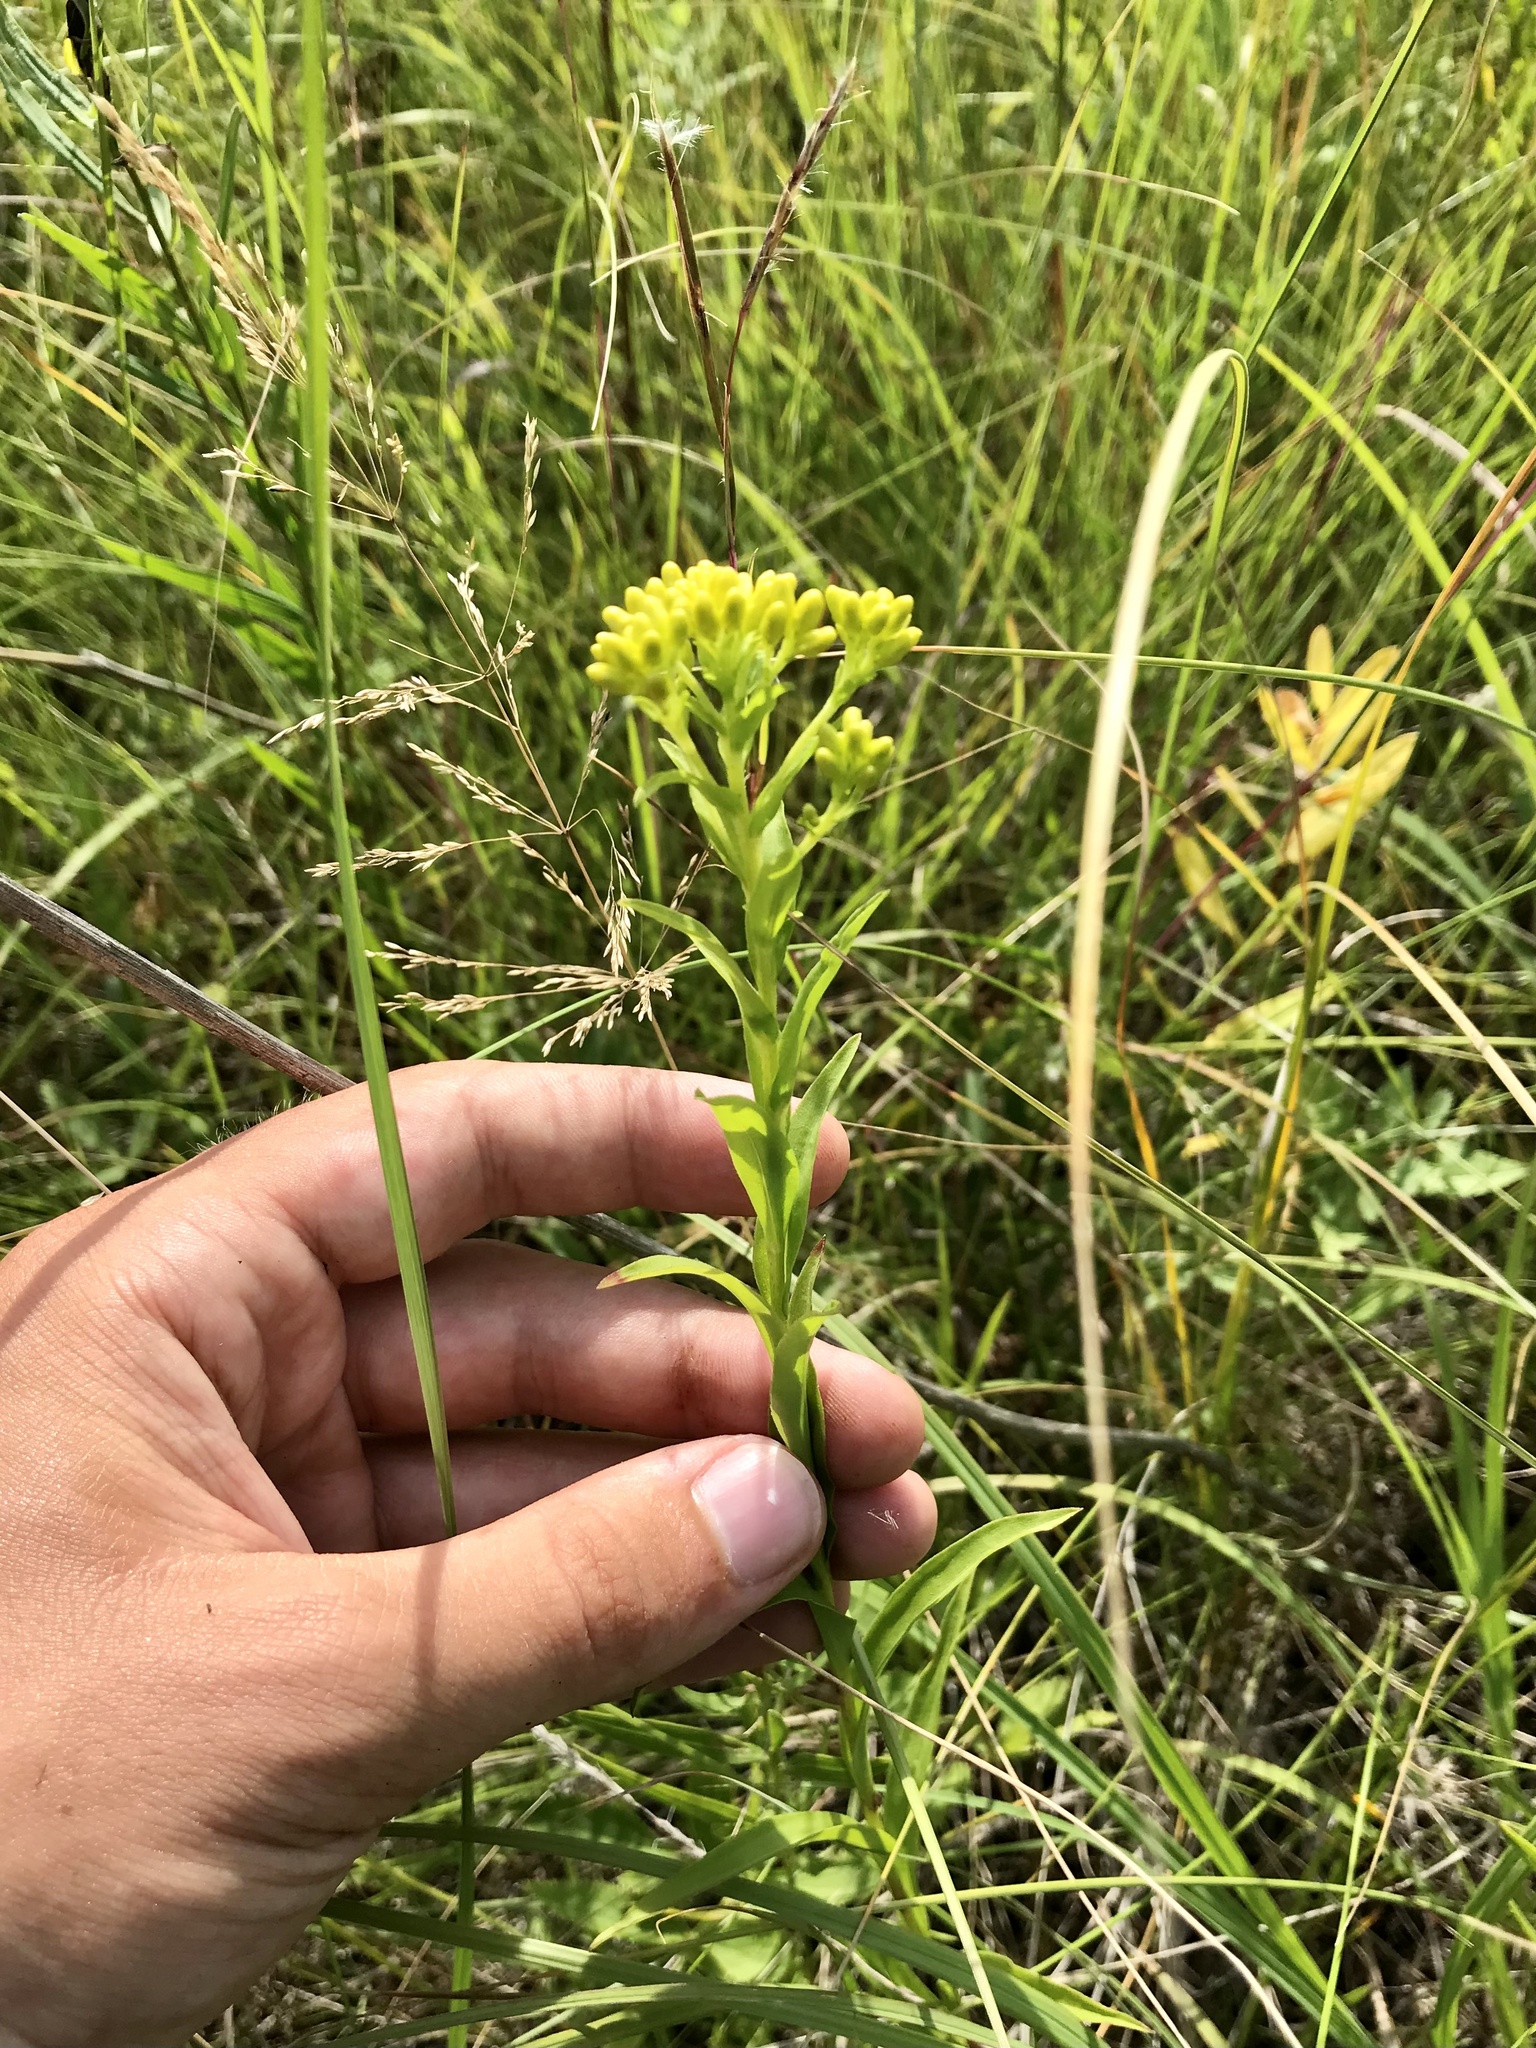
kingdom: Plantae
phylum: Tracheophyta
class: Magnoliopsida
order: Asterales
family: Asteraceae
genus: Solidago
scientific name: Solidago riddellii
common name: Riddell's goldenrod
